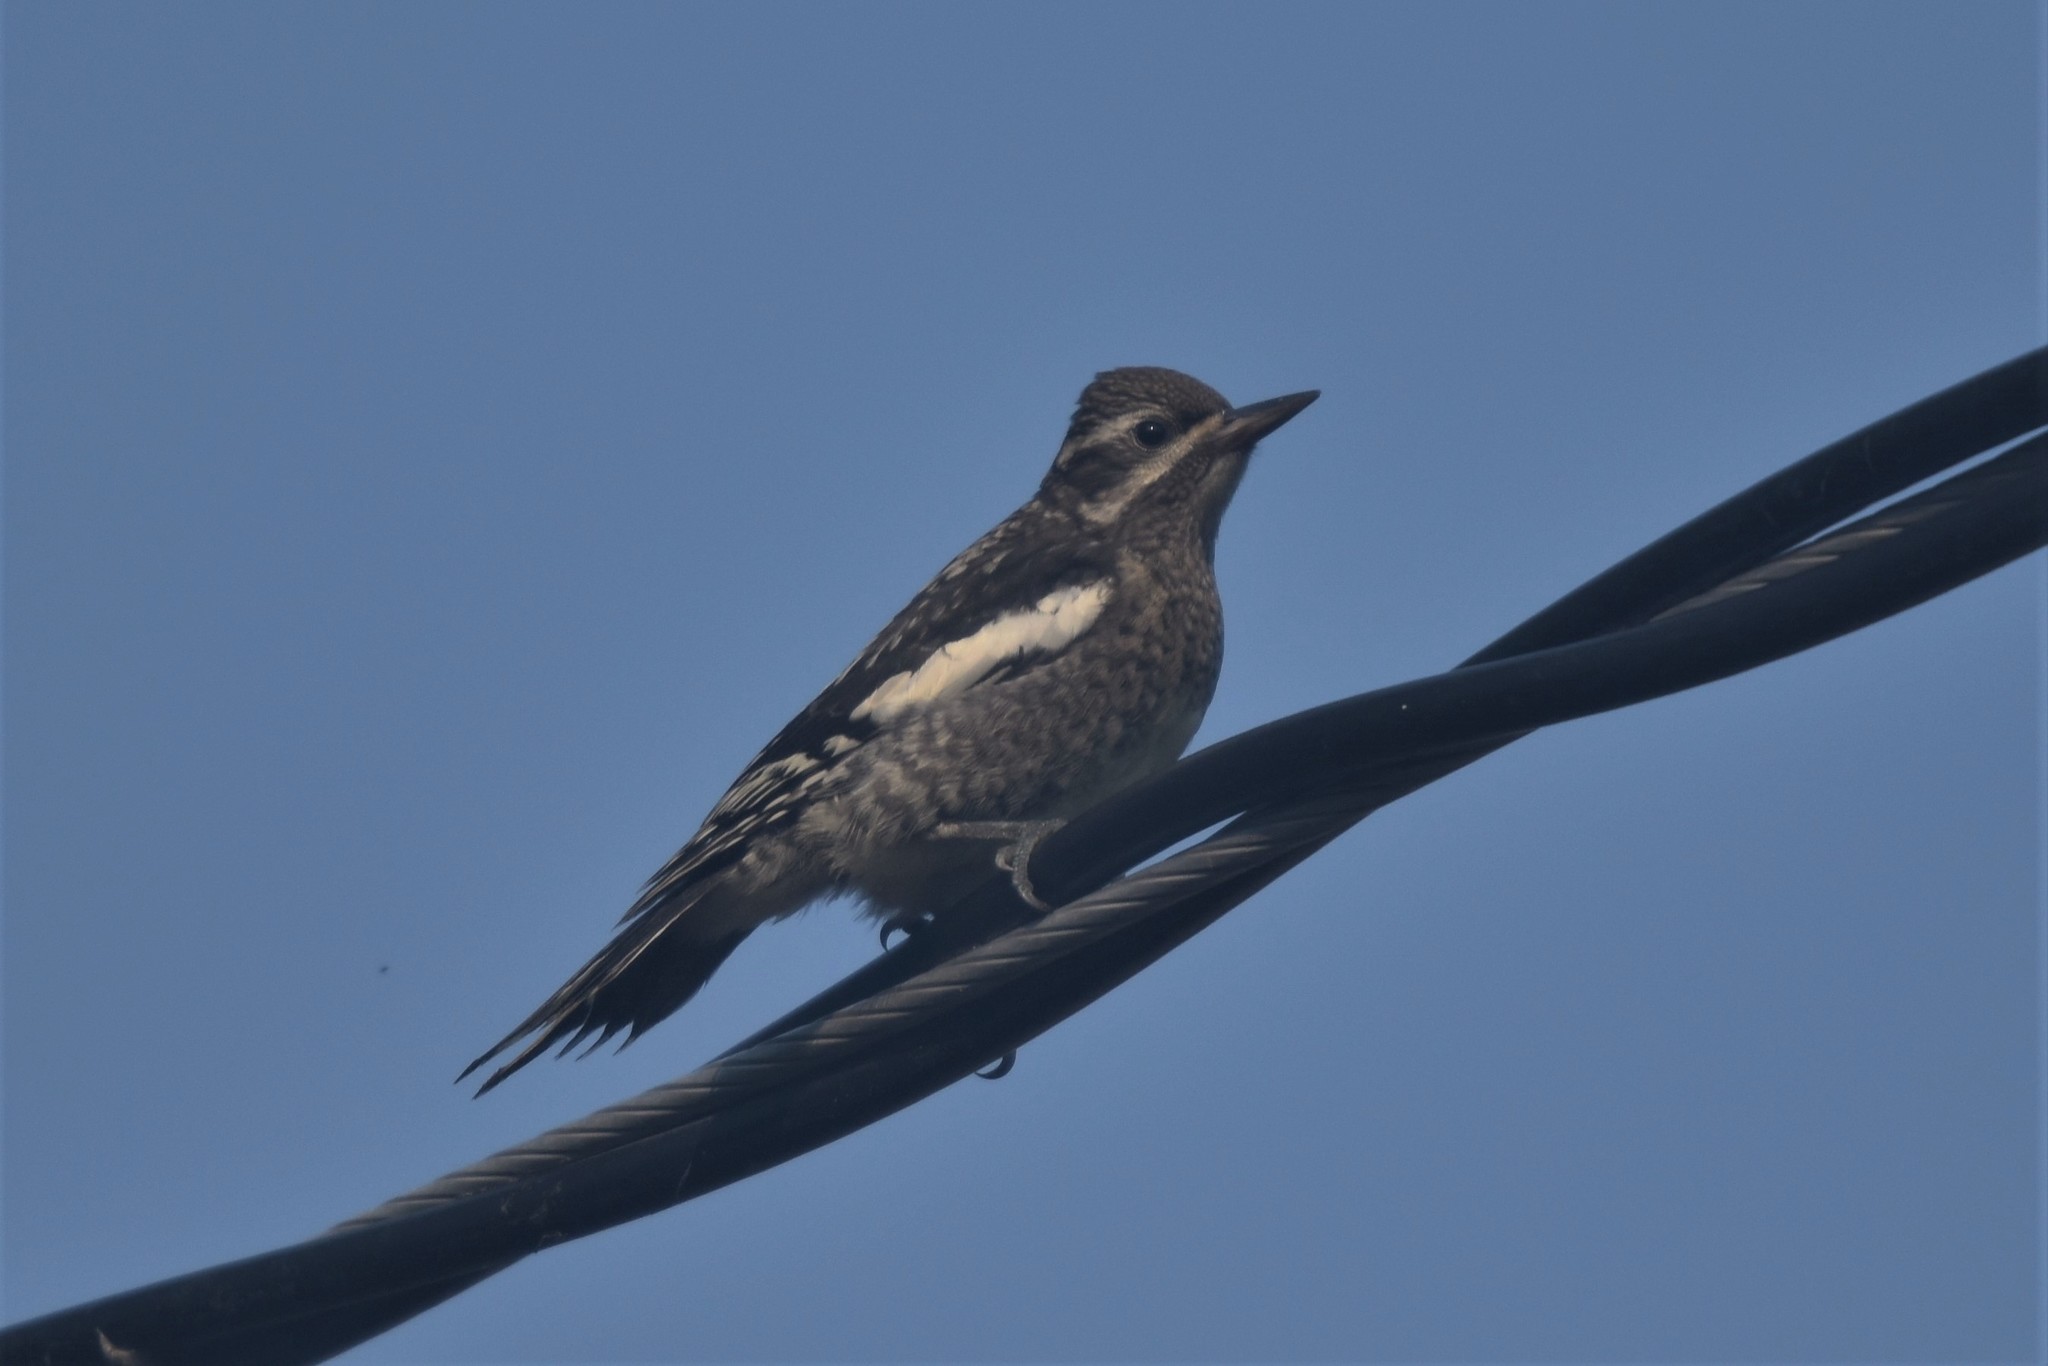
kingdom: Animalia
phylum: Chordata
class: Aves
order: Piciformes
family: Picidae
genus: Sphyrapicus
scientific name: Sphyrapicus varius
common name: Yellow-bellied sapsucker
